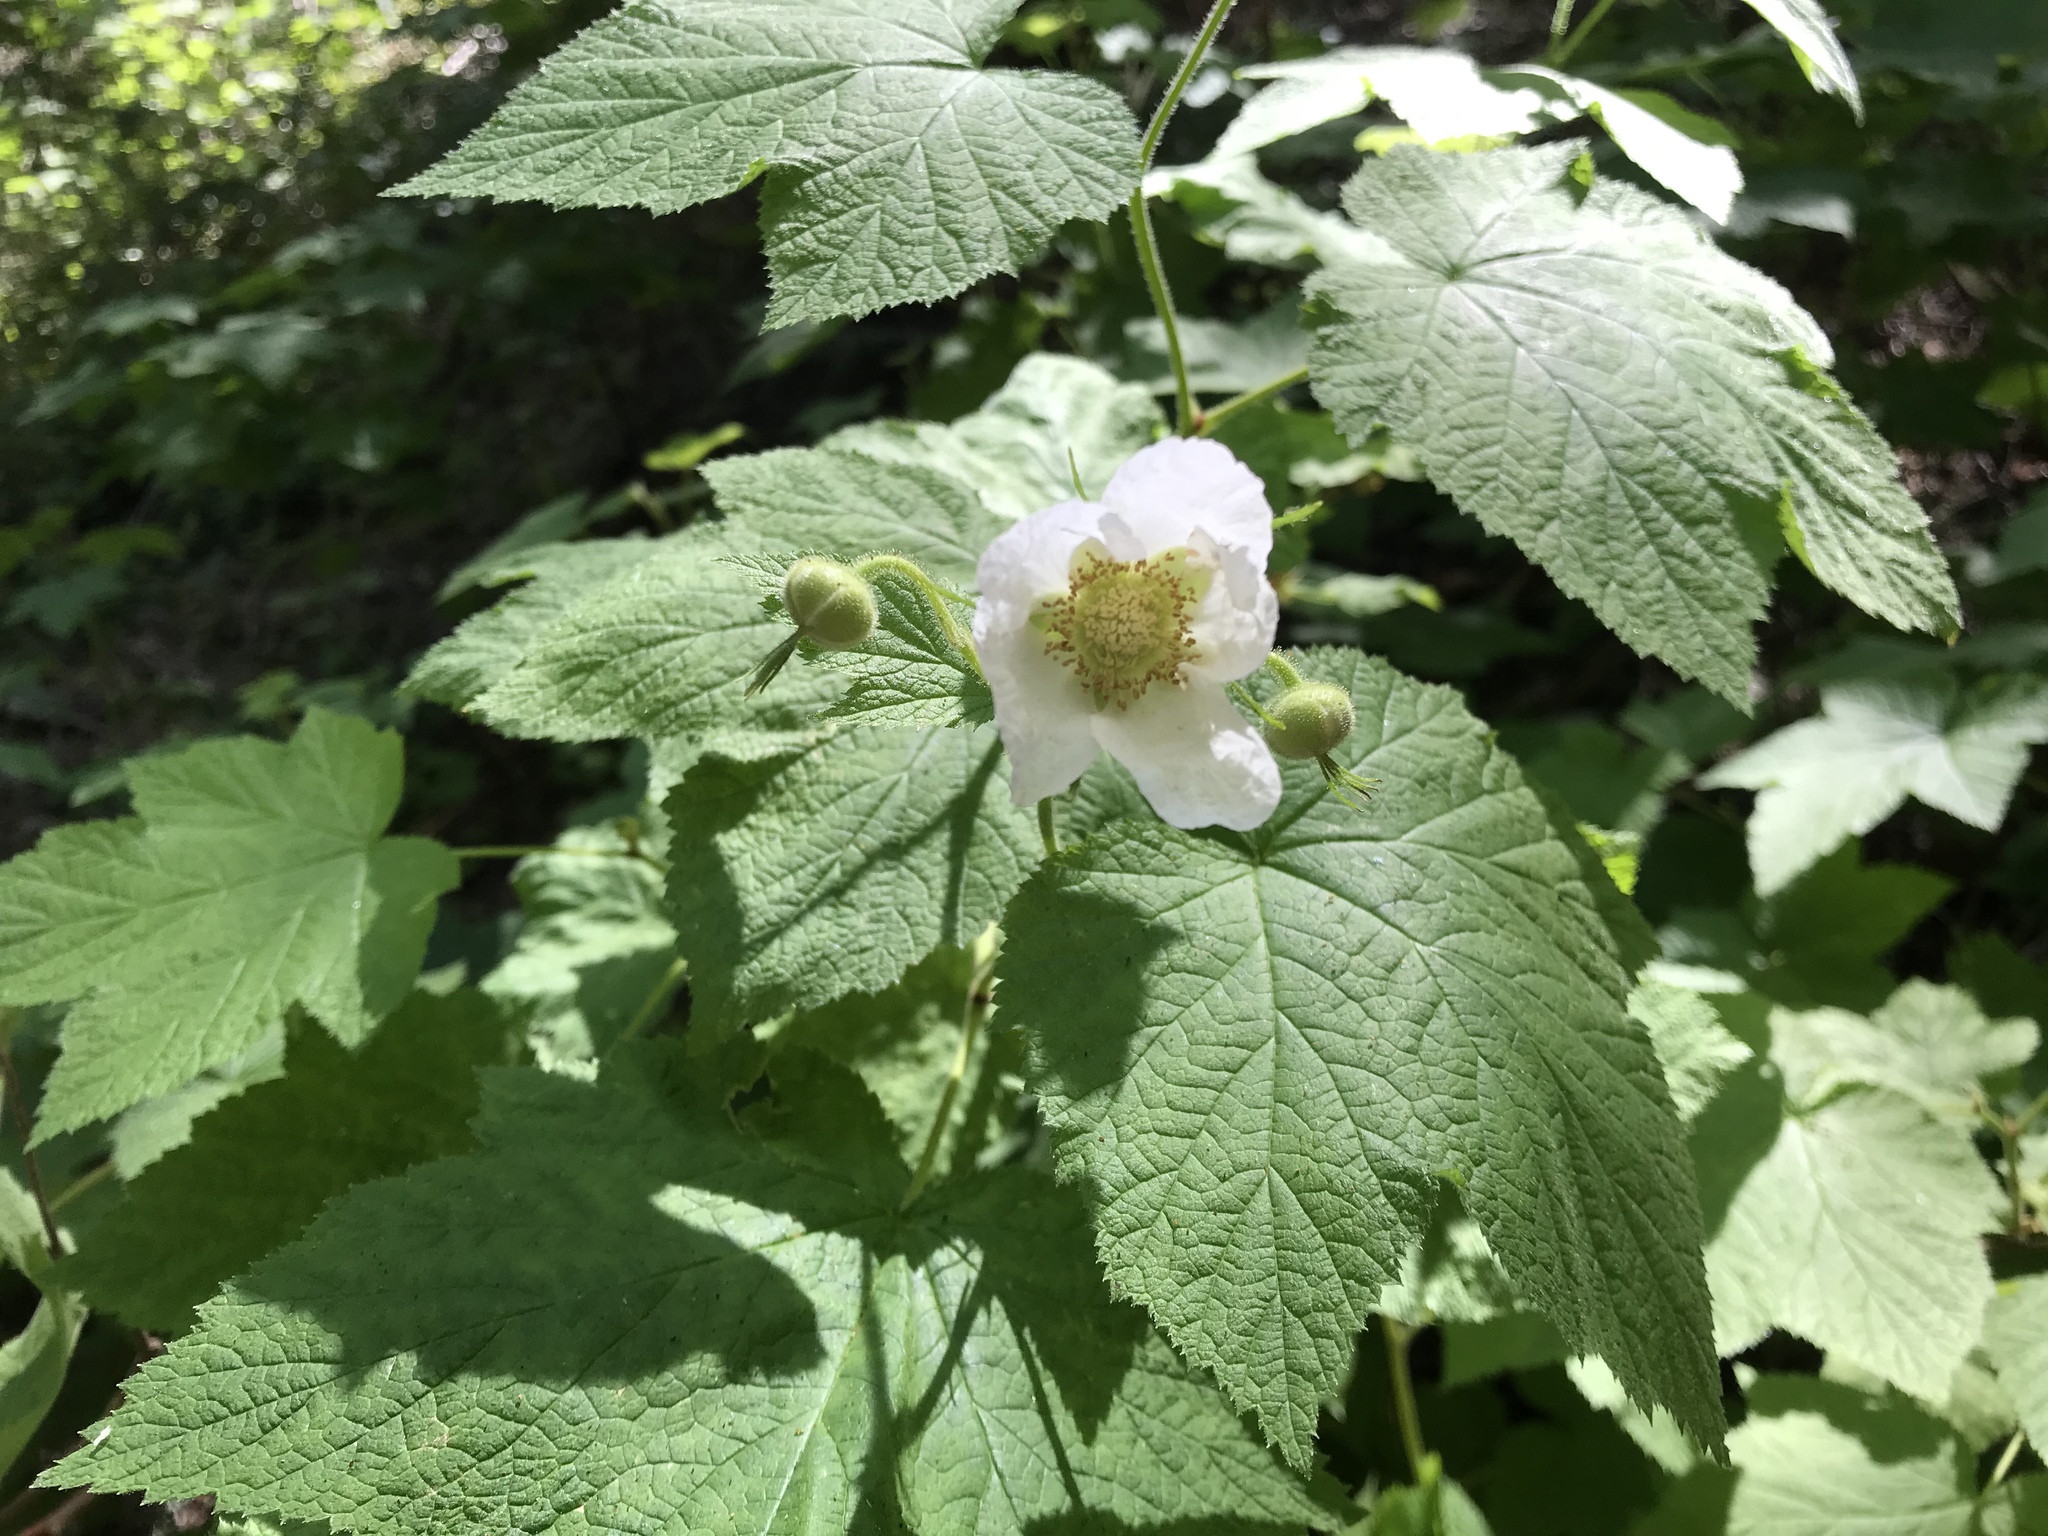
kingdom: Plantae
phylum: Tracheophyta
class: Magnoliopsida
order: Rosales
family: Rosaceae
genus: Rubus
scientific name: Rubus parviflorus
